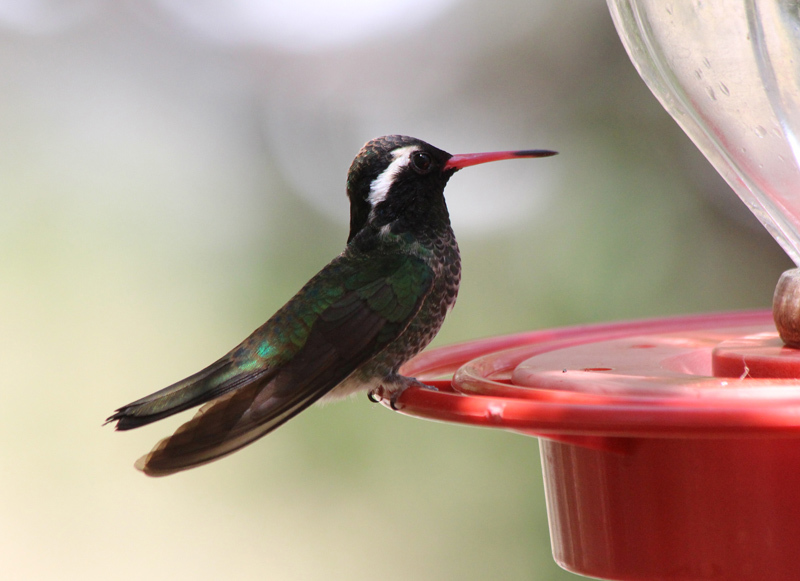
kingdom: Animalia
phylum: Chordata
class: Aves
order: Apodiformes
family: Trochilidae
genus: Basilinna
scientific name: Basilinna leucotis
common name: White-eared hummingbird
